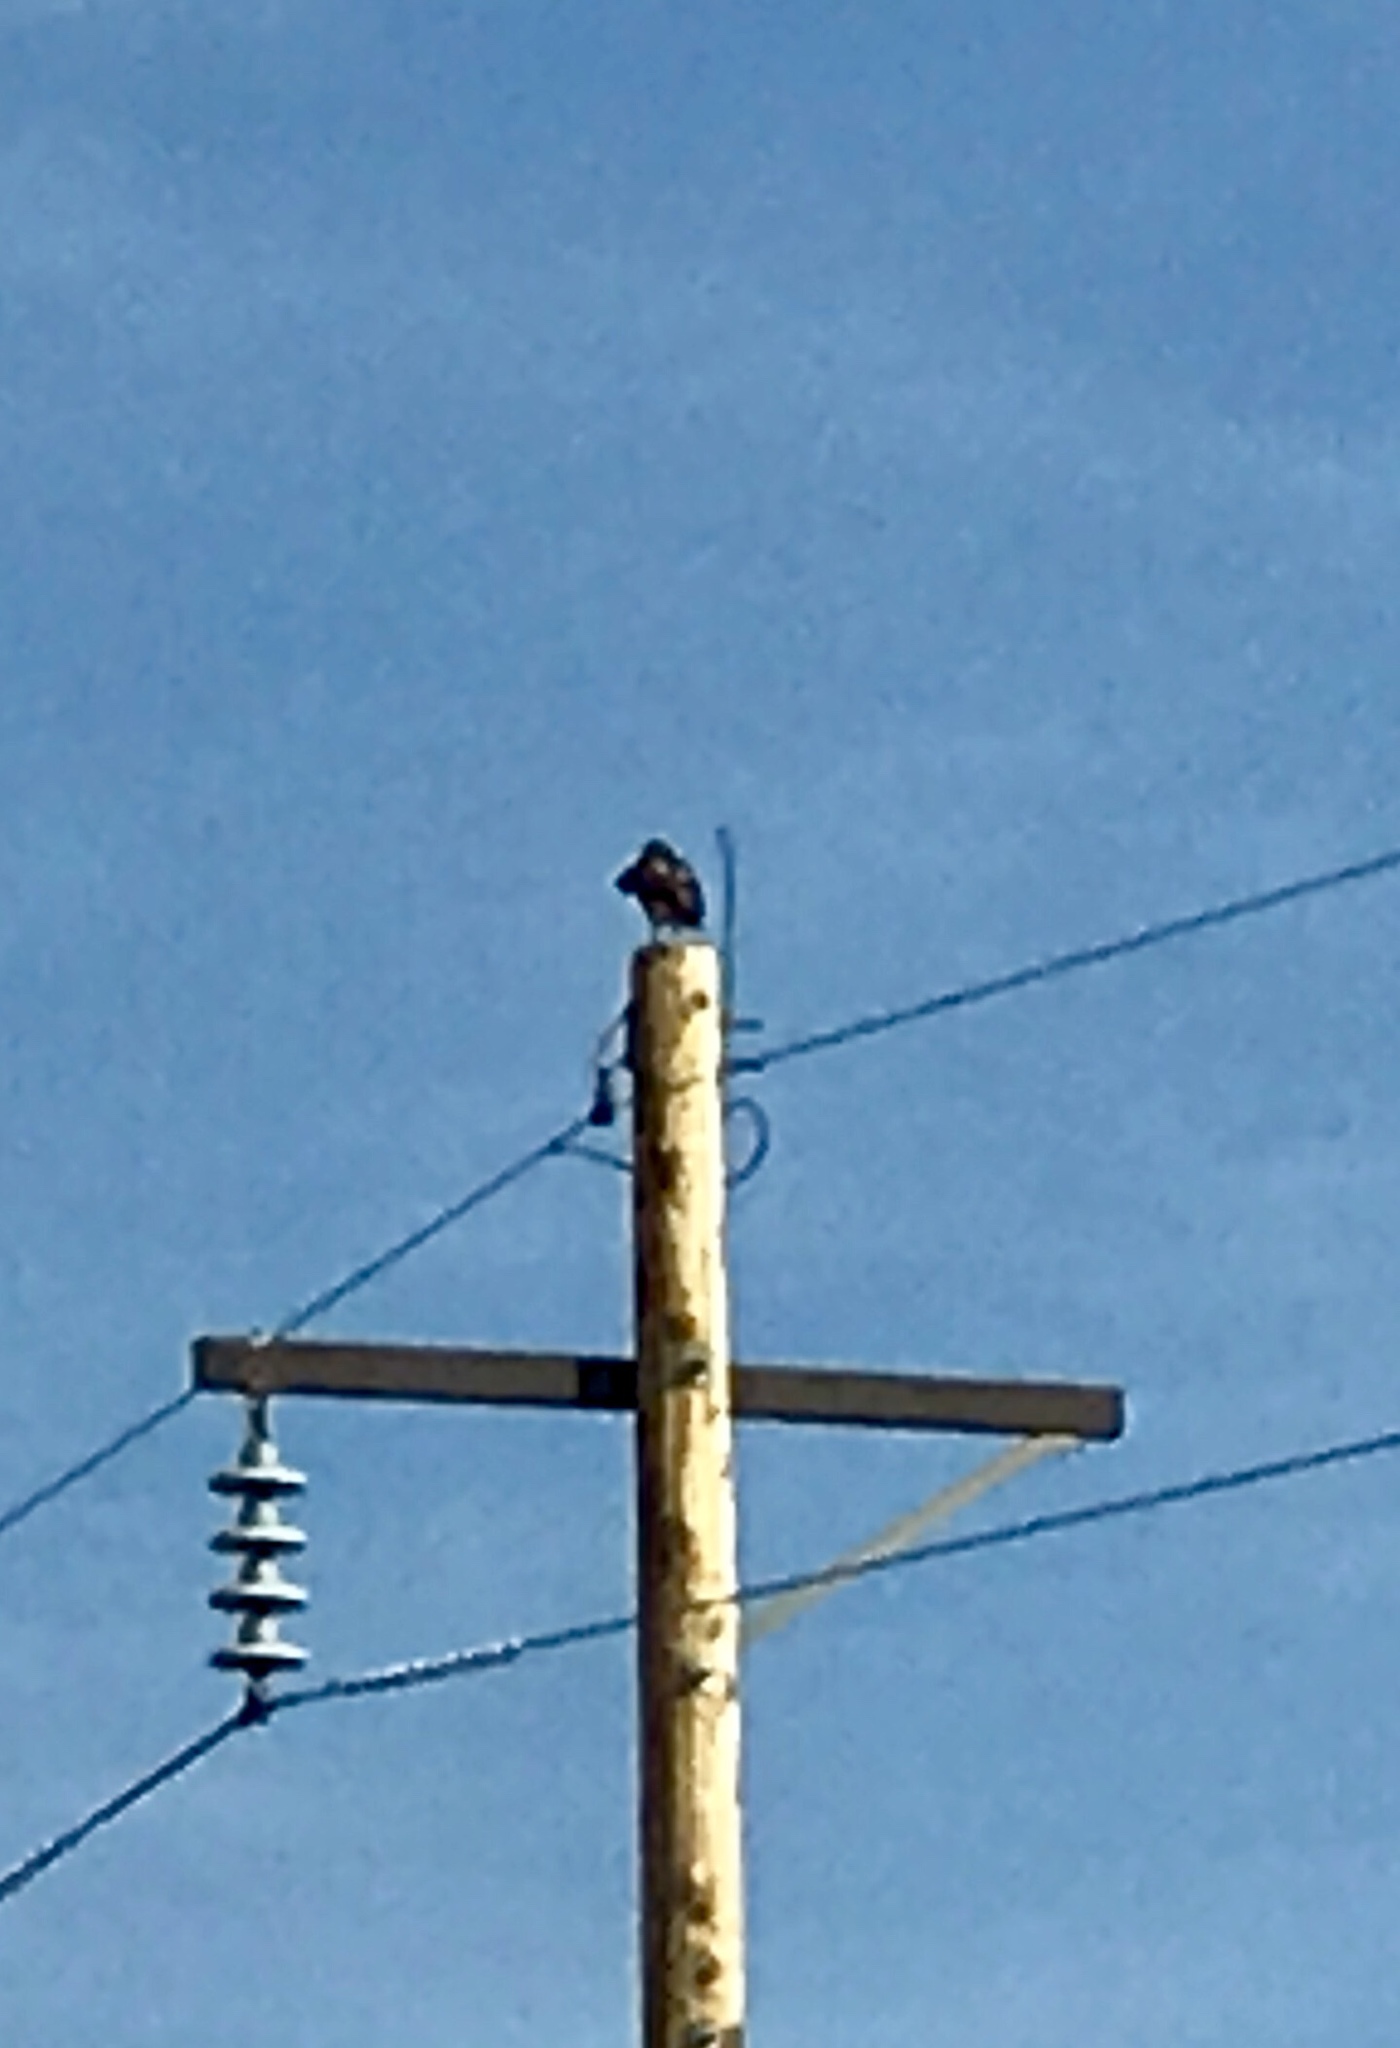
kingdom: Animalia
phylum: Chordata
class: Aves
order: Accipitriformes
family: Accipitridae
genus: Buteo
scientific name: Buteo jamaicensis
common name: Red-tailed hawk
